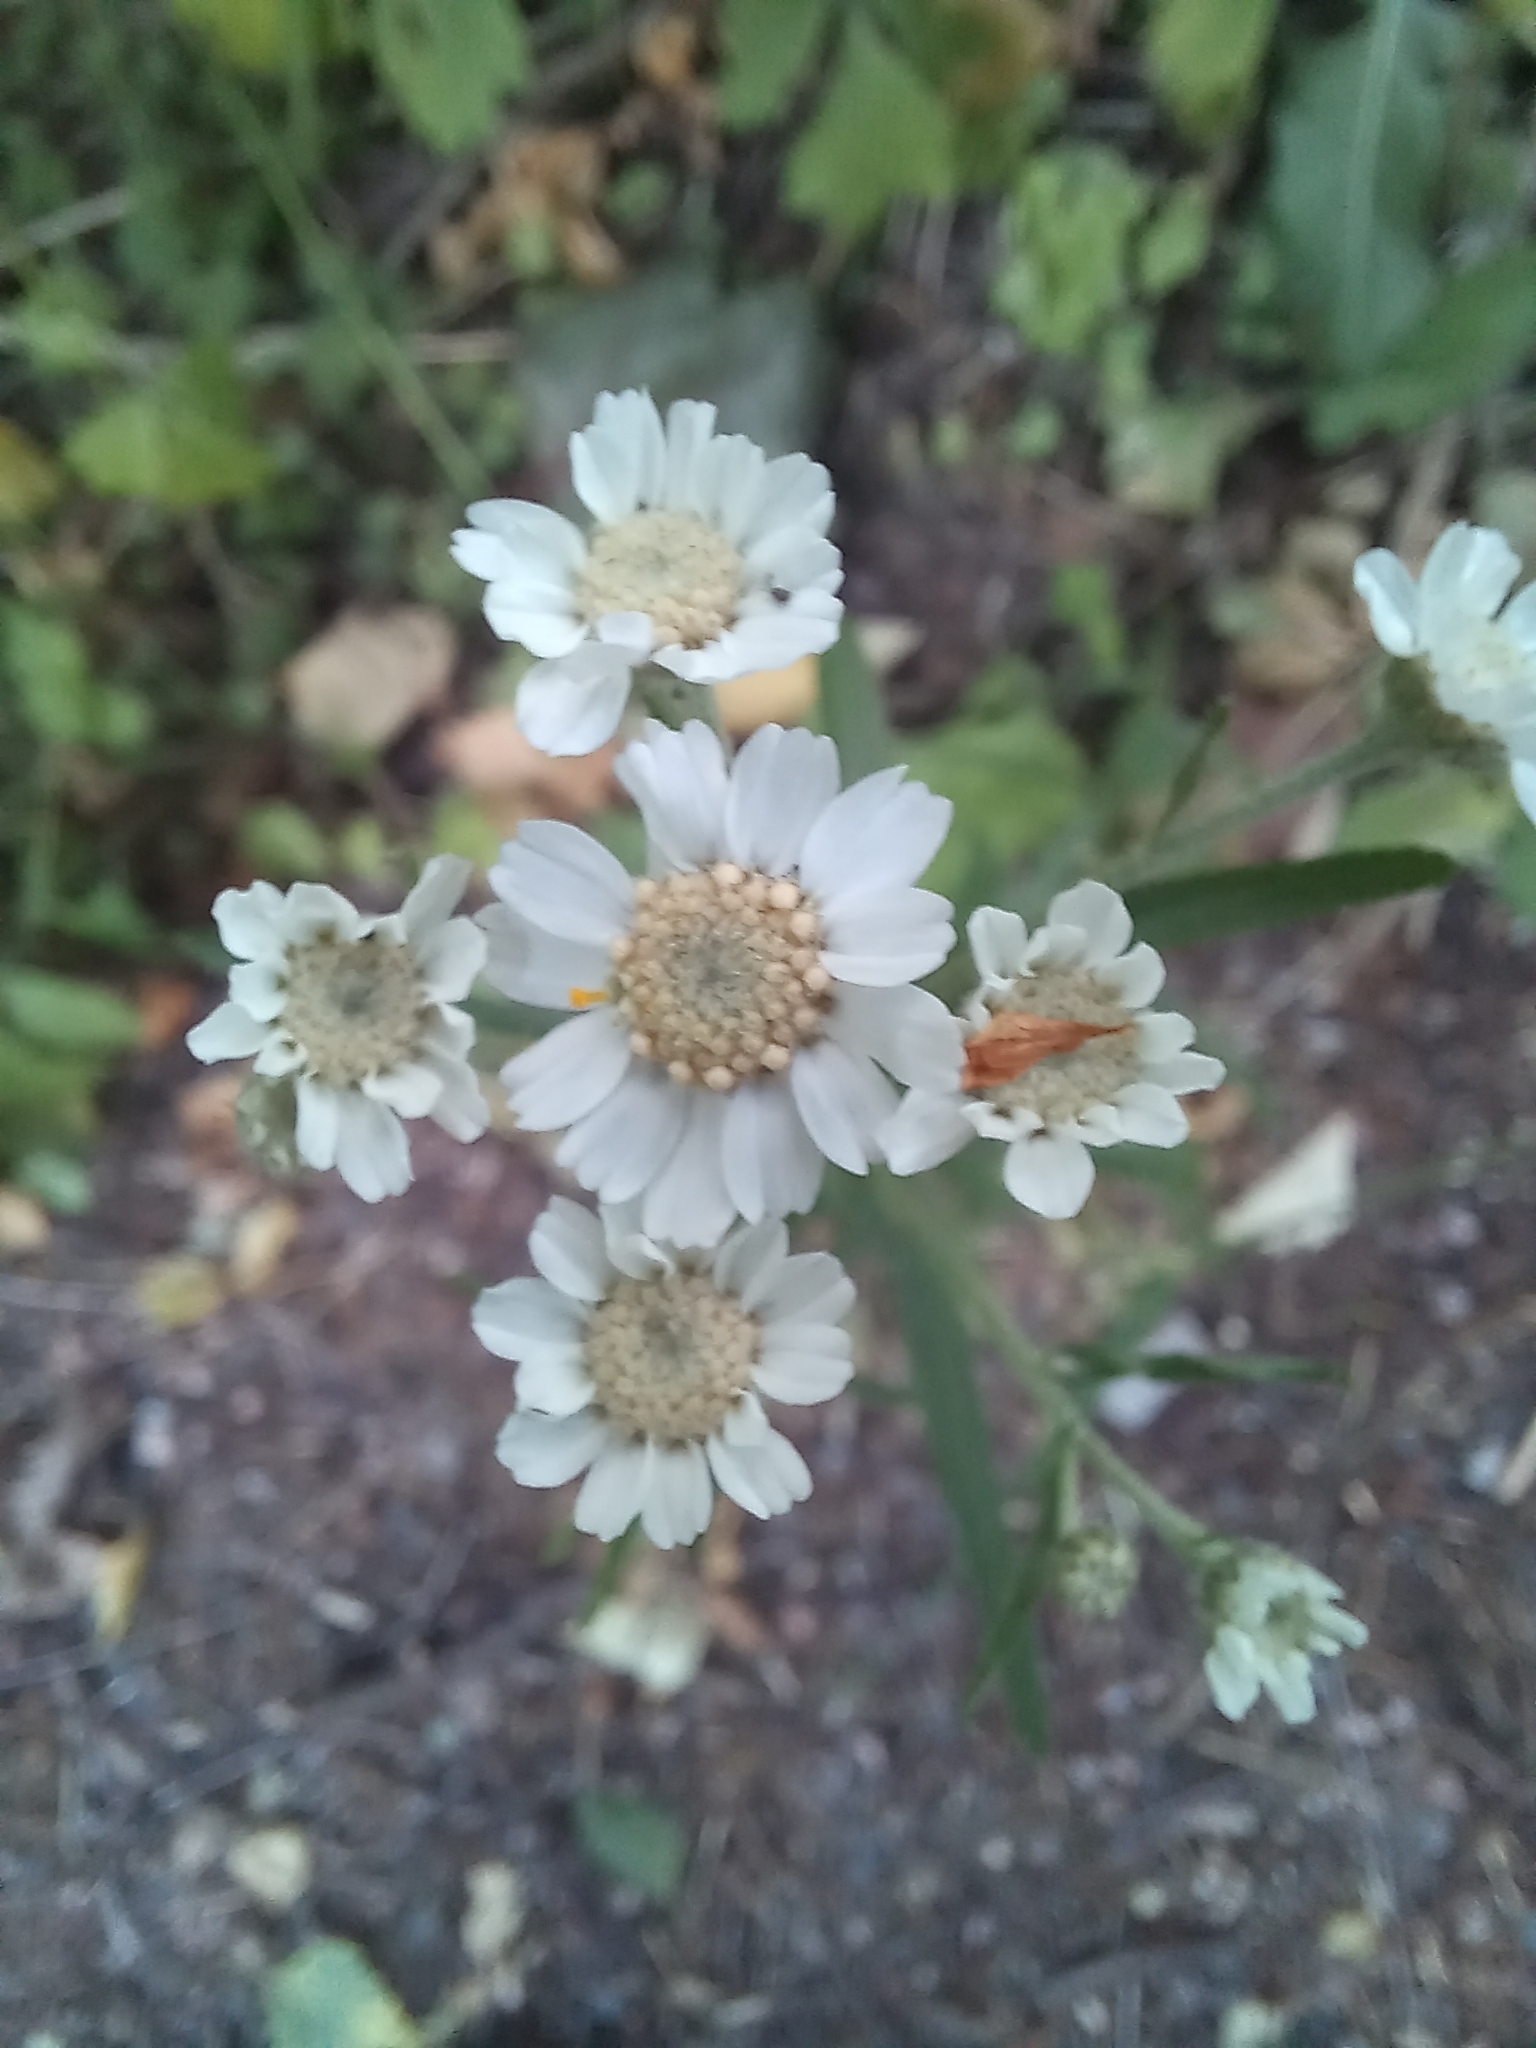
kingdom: Plantae
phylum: Tracheophyta
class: Magnoliopsida
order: Asterales
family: Asteraceae
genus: Achillea
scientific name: Achillea ptarmica
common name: Sneezeweed
